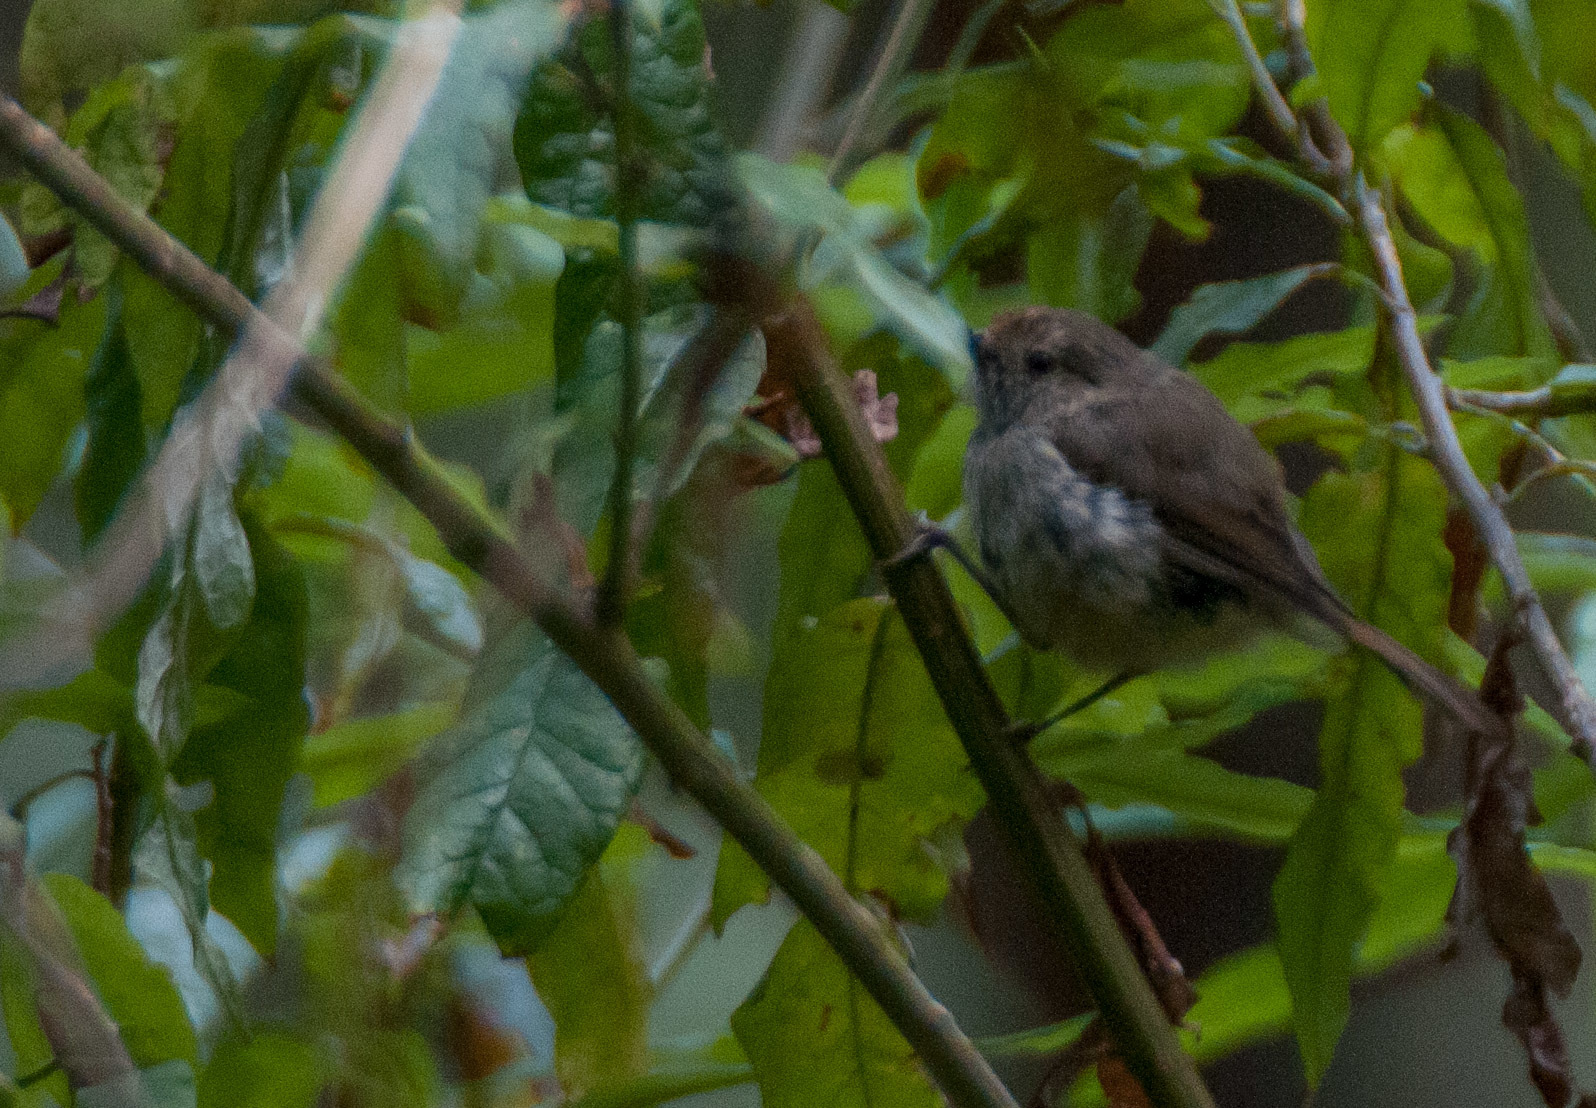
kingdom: Animalia
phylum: Chordata
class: Aves
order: Passeriformes
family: Acanthizidae
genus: Acanthiza
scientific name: Acanthiza pusilla
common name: Brown thornbill
